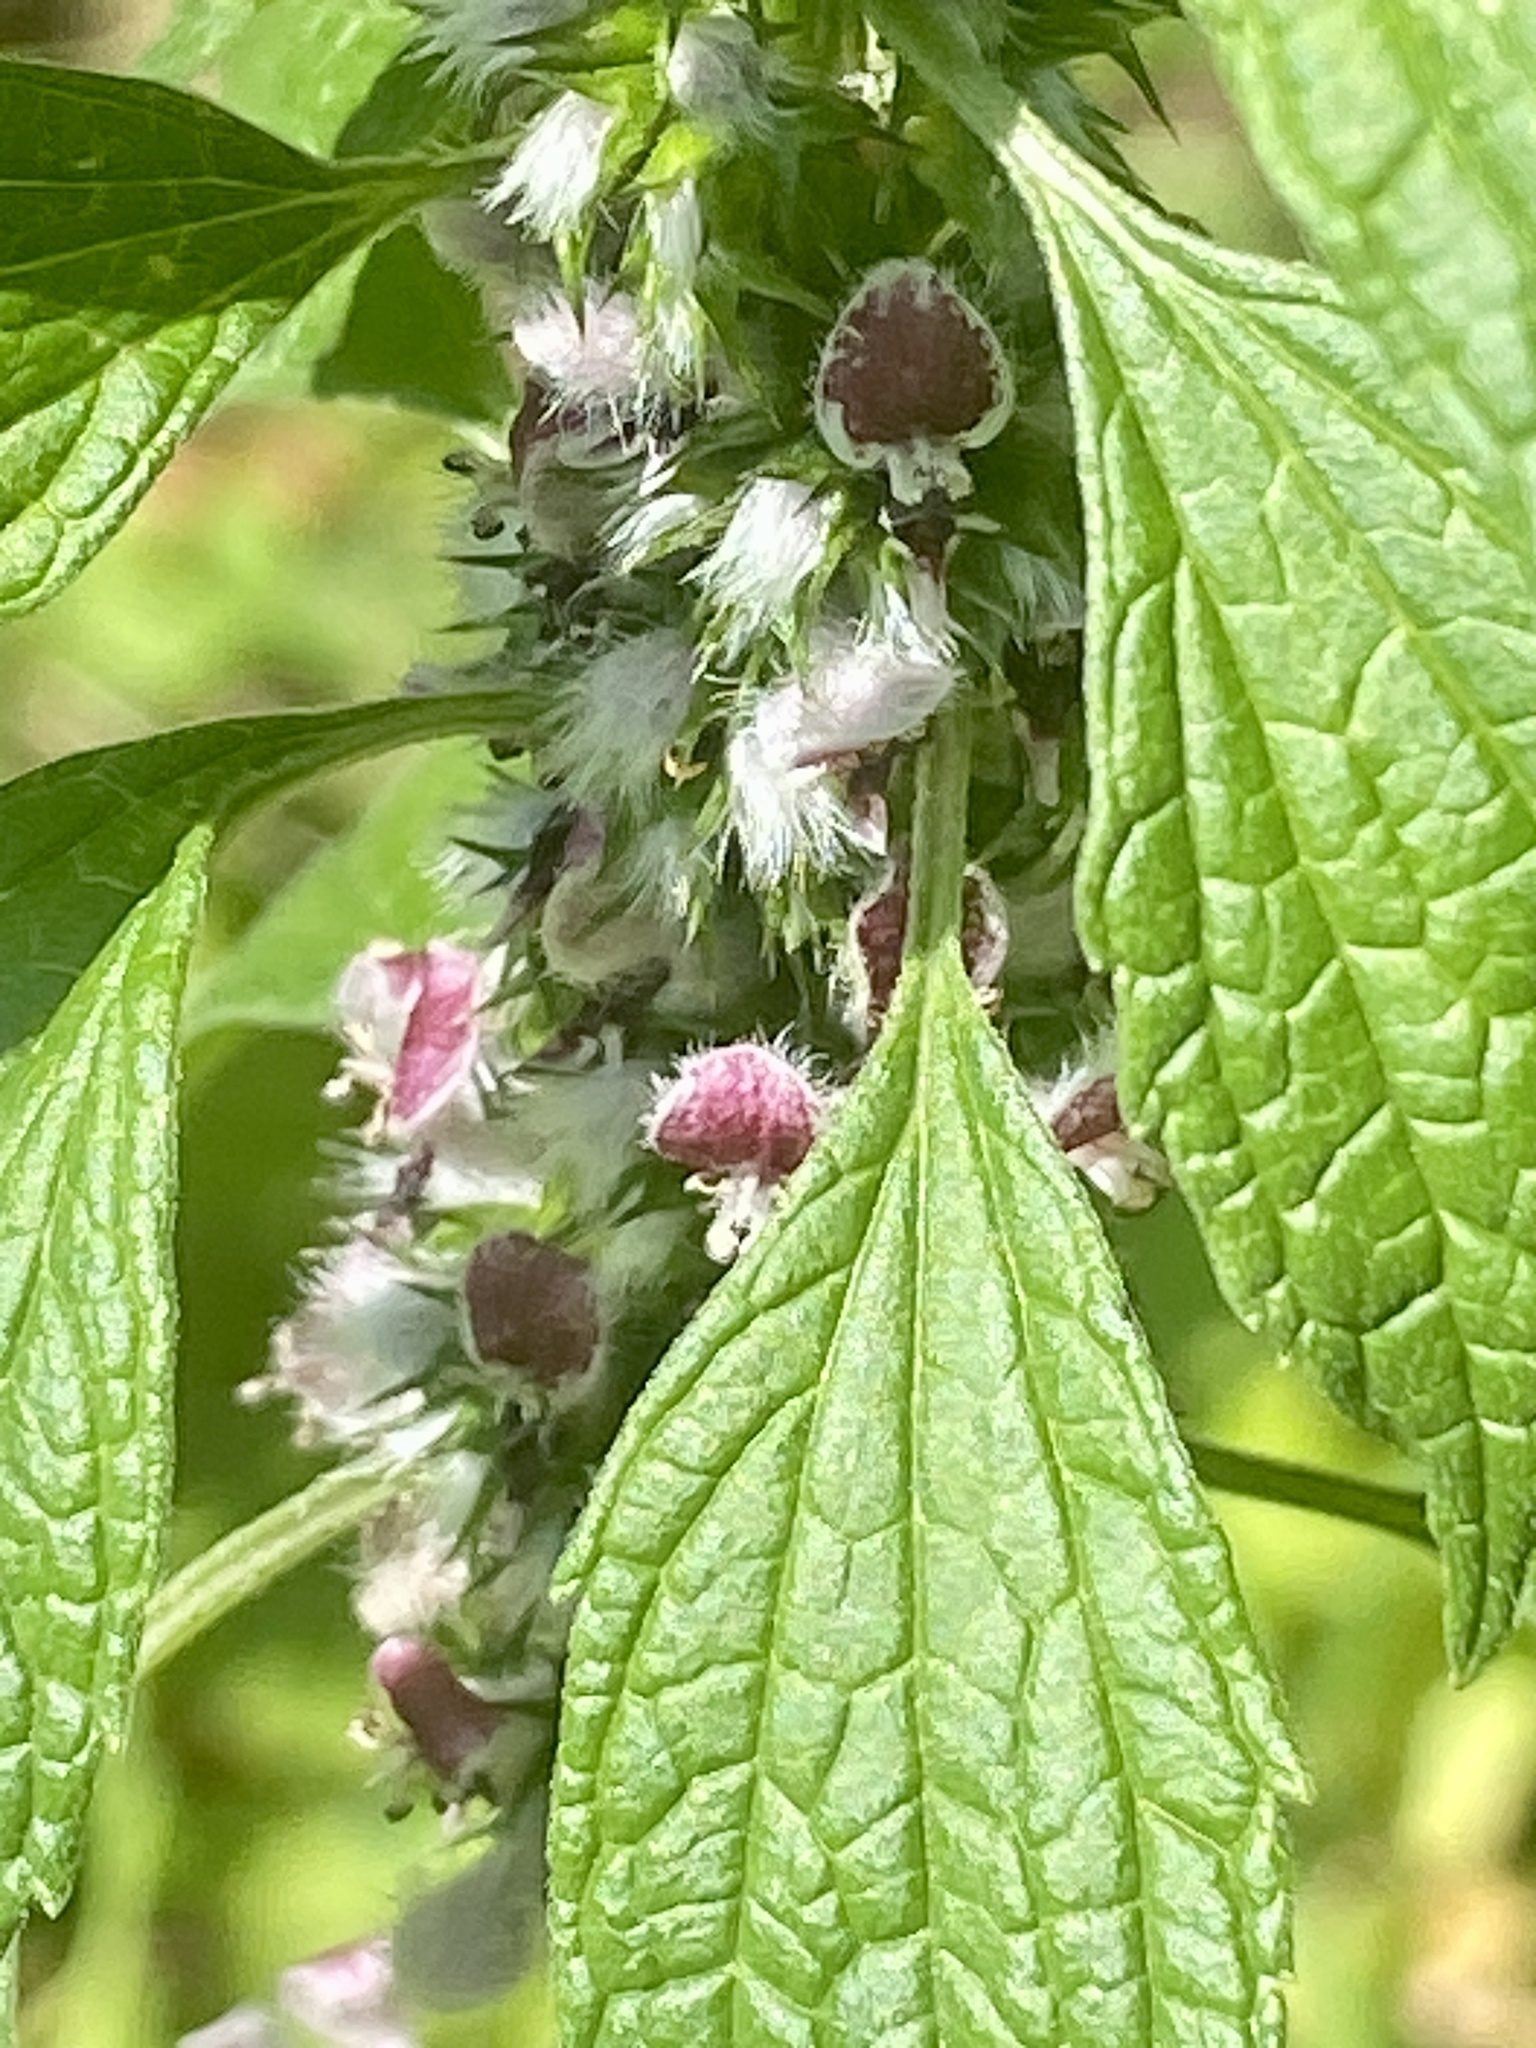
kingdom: Plantae
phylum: Tracheophyta
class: Magnoliopsida
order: Lamiales
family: Lamiaceae
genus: Leonurus
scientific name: Leonurus cardiaca
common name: Motherwort
